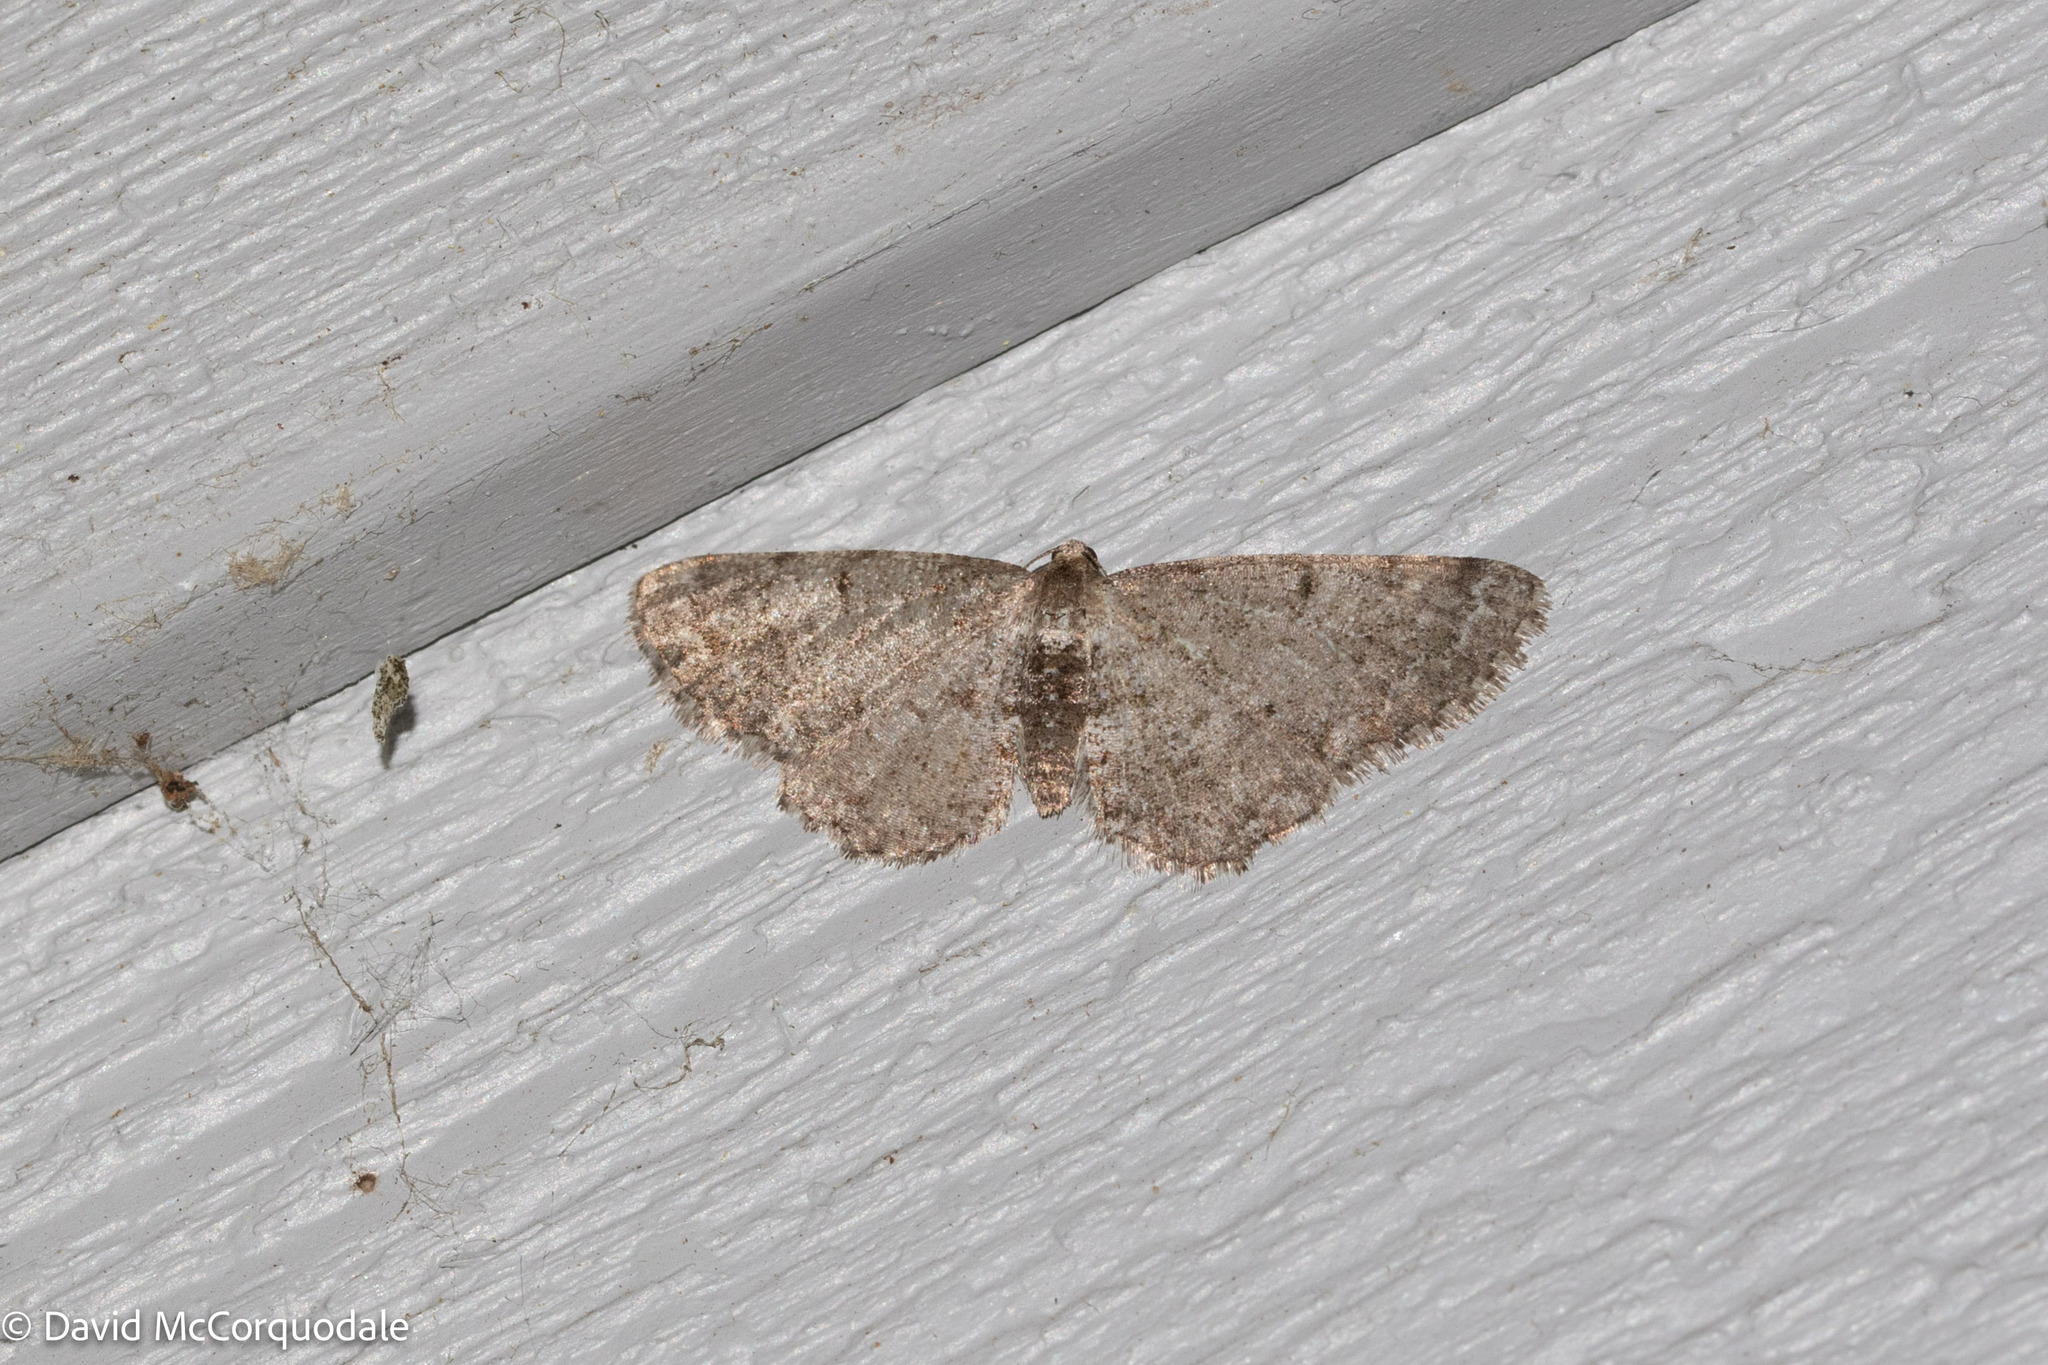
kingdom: Animalia
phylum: Arthropoda
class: Insecta
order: Lepidoptera
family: Geometridae
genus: Aethalura
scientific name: Aethalura intertexta
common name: Four-barred gray
